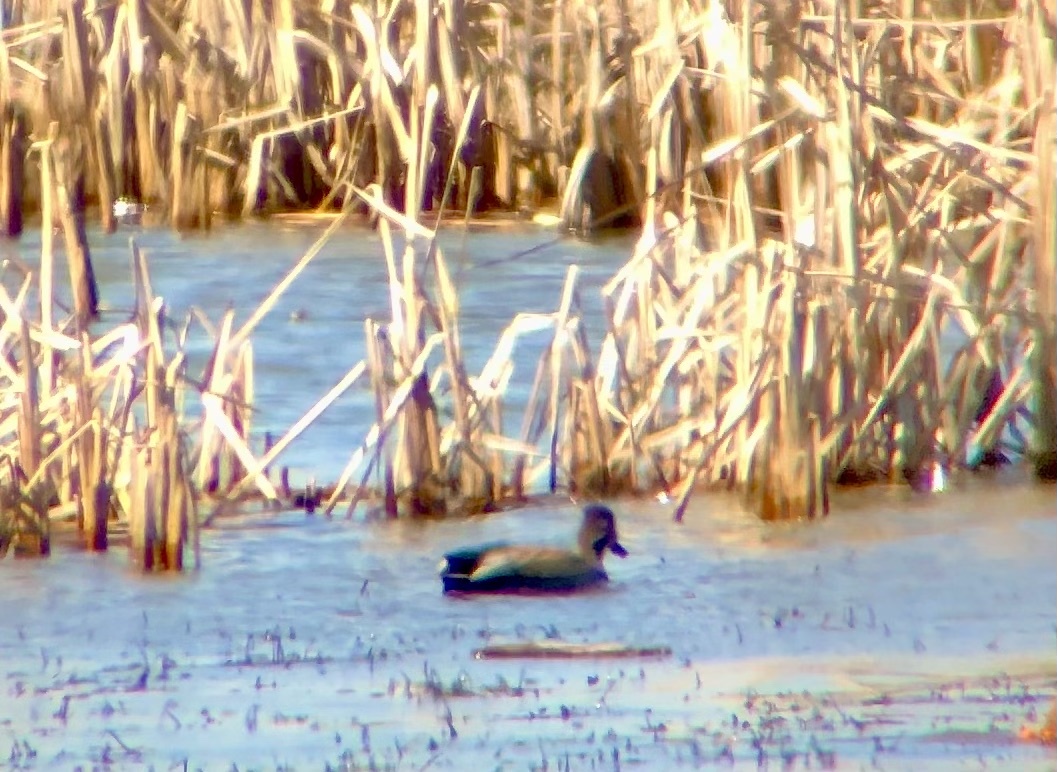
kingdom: Animalia
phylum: Chordata
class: Aves
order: Anseriformes
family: Anatidae
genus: Mareca
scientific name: Mareca strepera
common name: Gadwall
